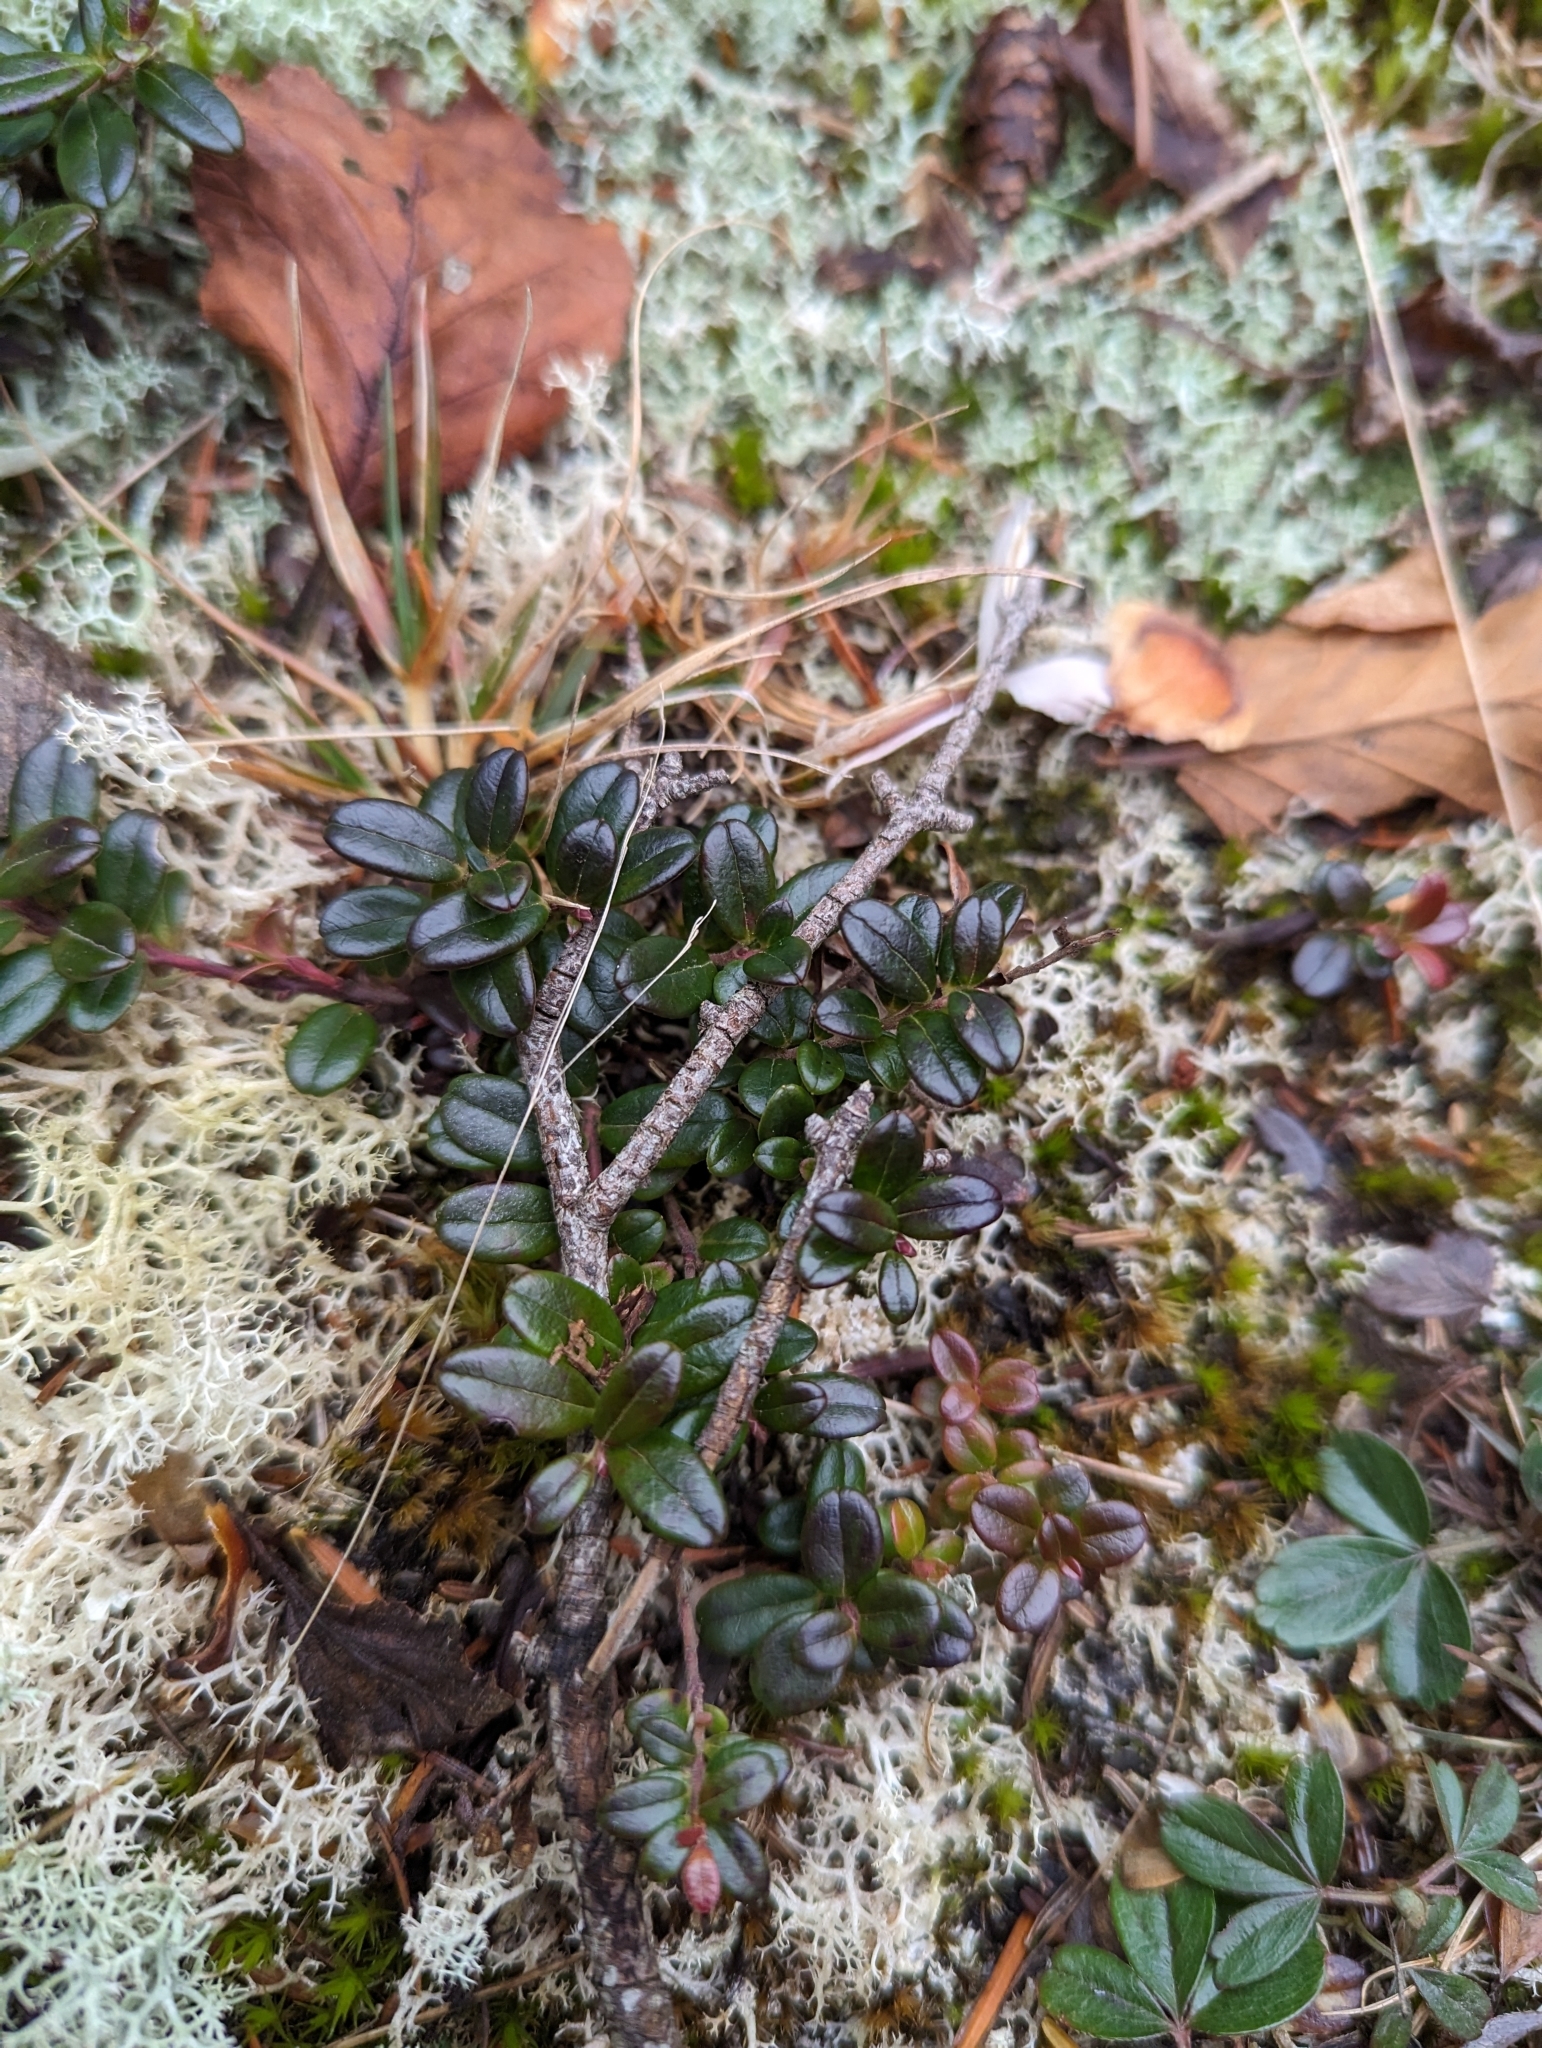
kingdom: Plantae
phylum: Tracheophyta
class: Magnoliopsida
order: Ericales
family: Ericaceae
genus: Vaccinium
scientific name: Vaccinium vitis-idaea
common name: Cowberry
